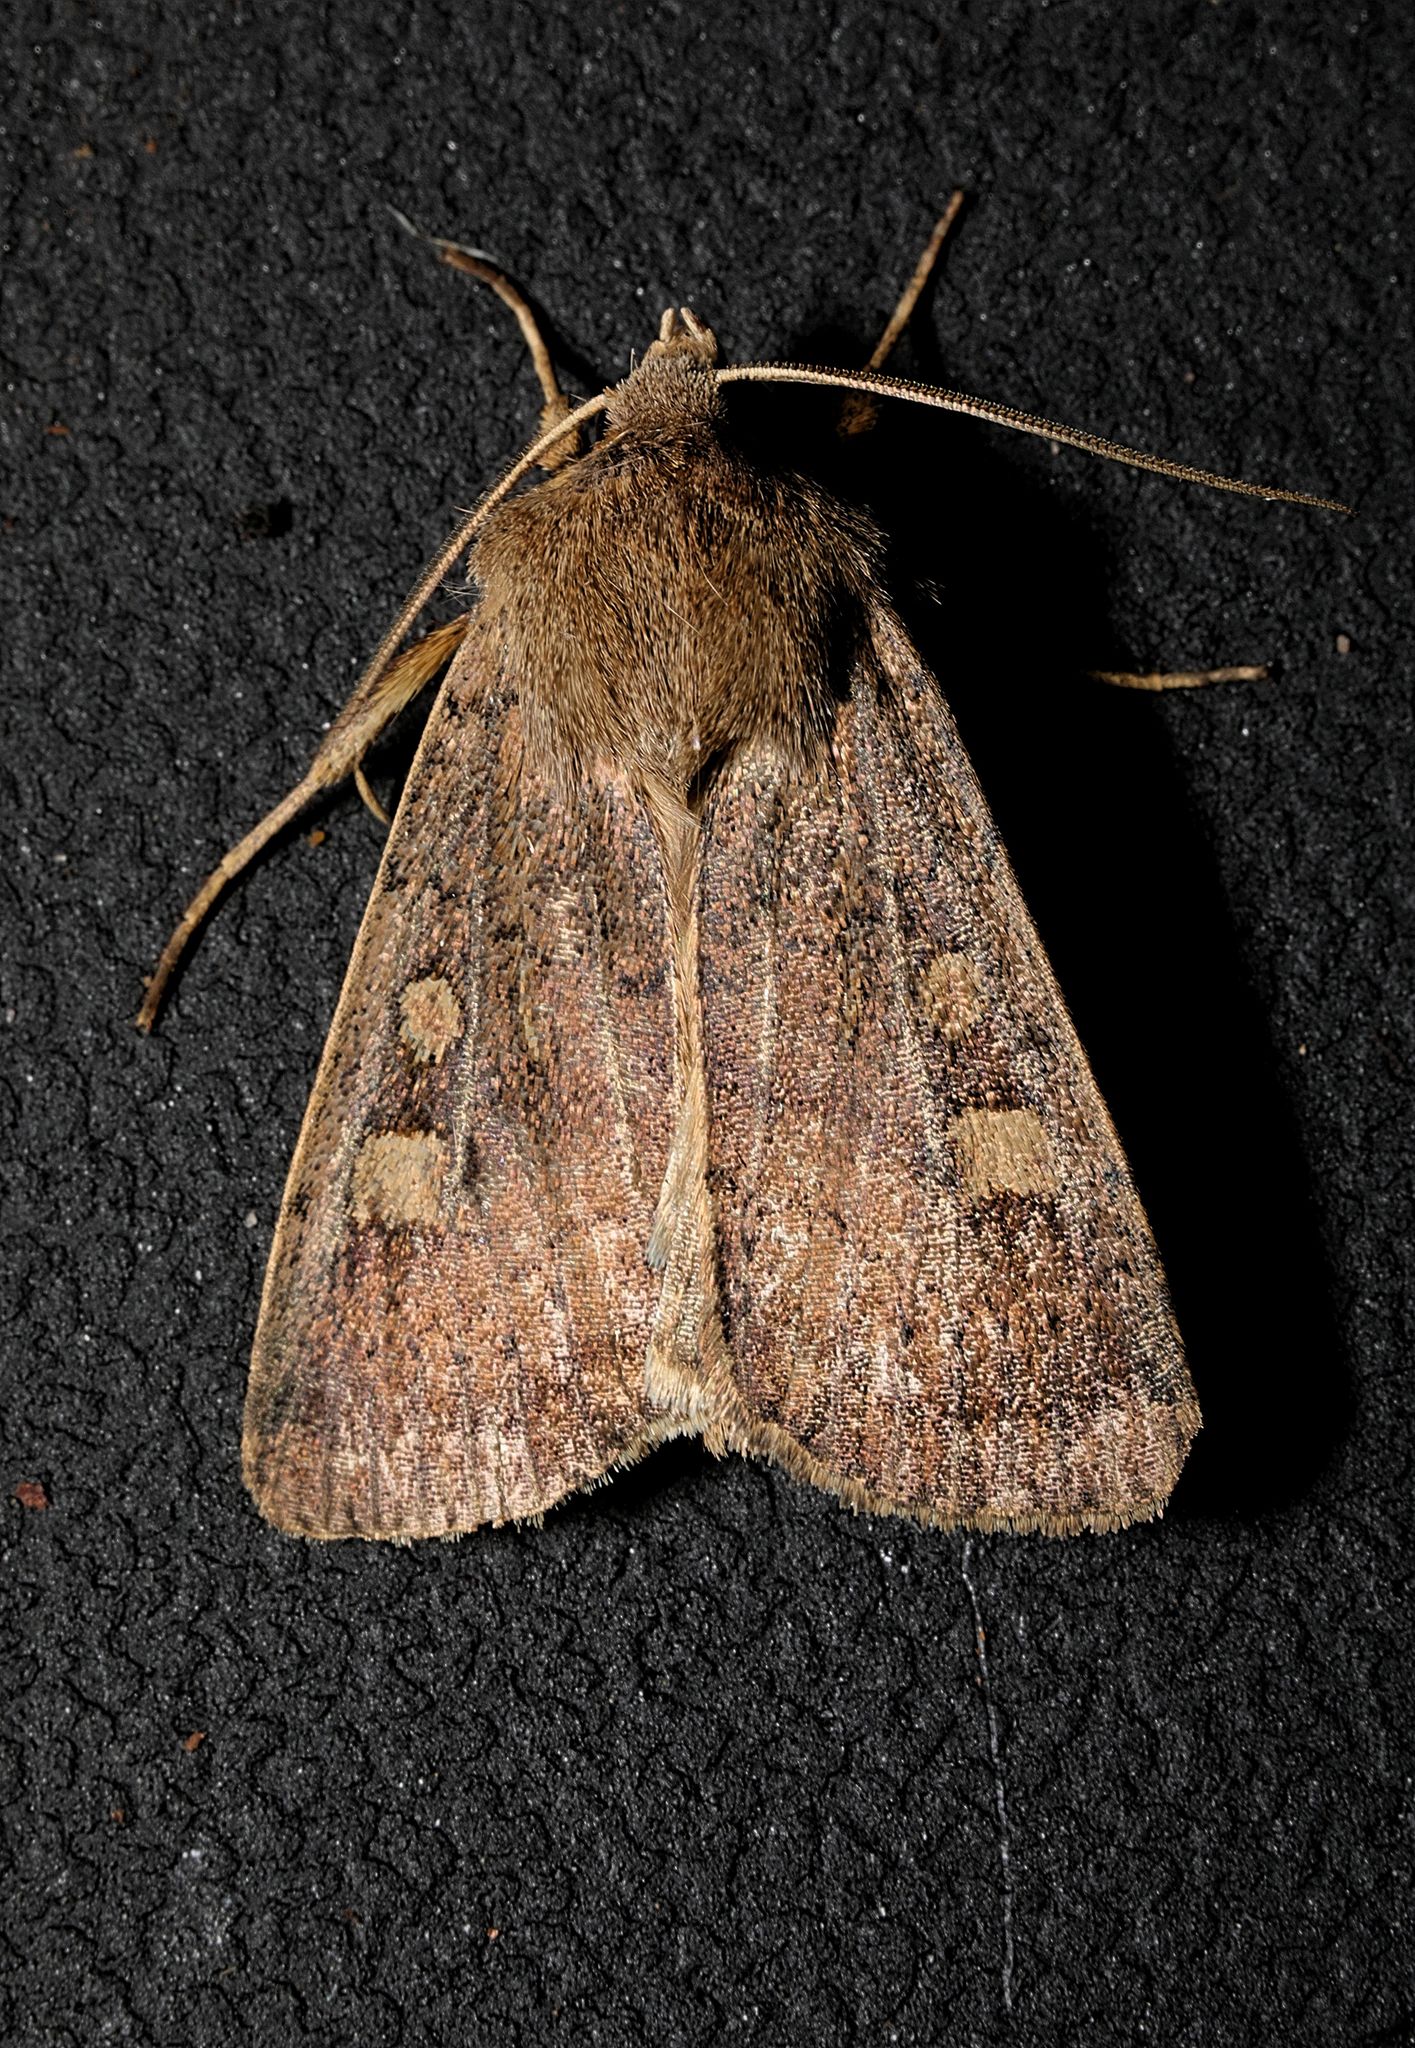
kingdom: Animalia
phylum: Arthropoda
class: Insecta
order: Lepidoptera
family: Noctuidae
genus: Xestia
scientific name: Xestia xanthographa
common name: Square-spot rustic
